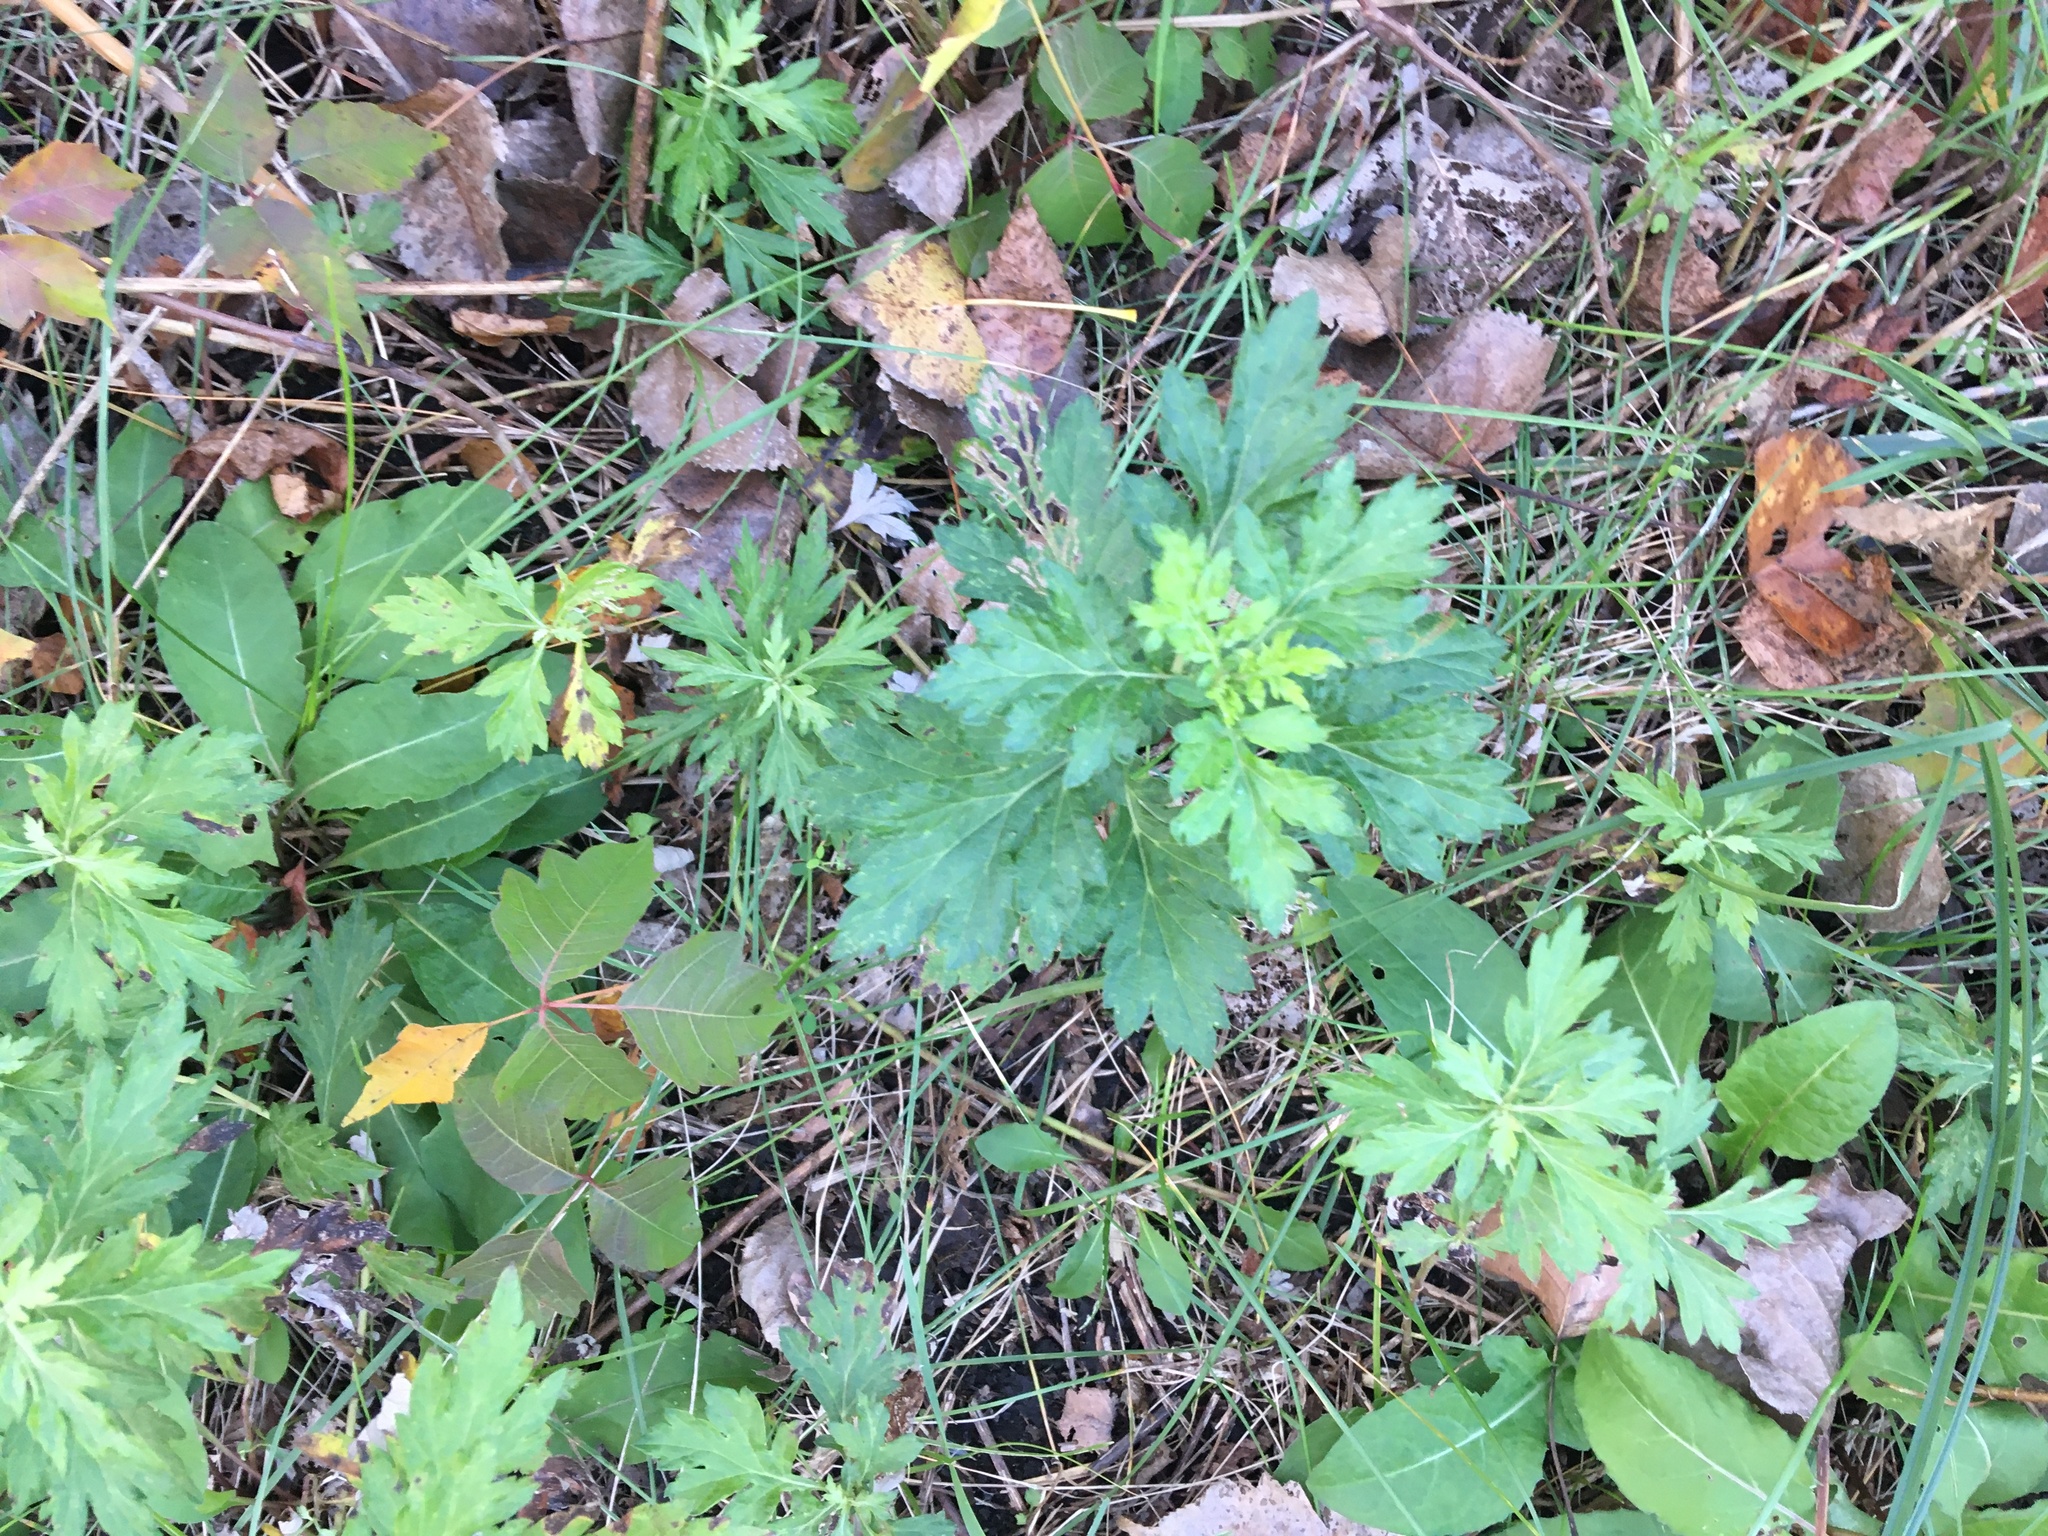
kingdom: Plantae
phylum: Tracheophyta
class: Magnoliopsida
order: Asterales
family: Asteraceae
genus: Artemisia
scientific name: Artemisia vulgaris
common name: Mugwort
